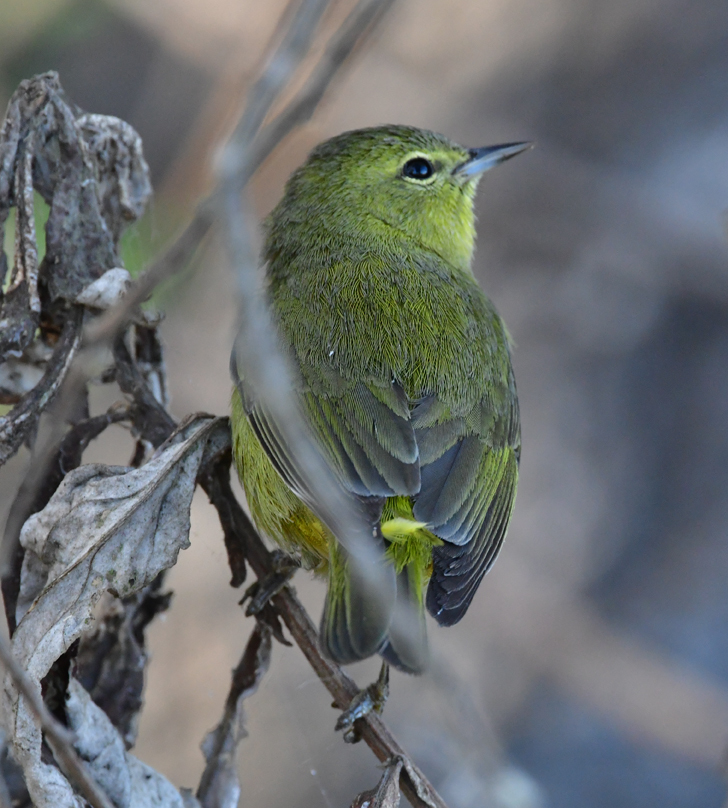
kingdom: Animalia
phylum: Chordata
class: Aves
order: Passeriformes
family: Parulidae
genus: Leiothlypis
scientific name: Leiothlypis celata
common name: Orange-crowned warbler
